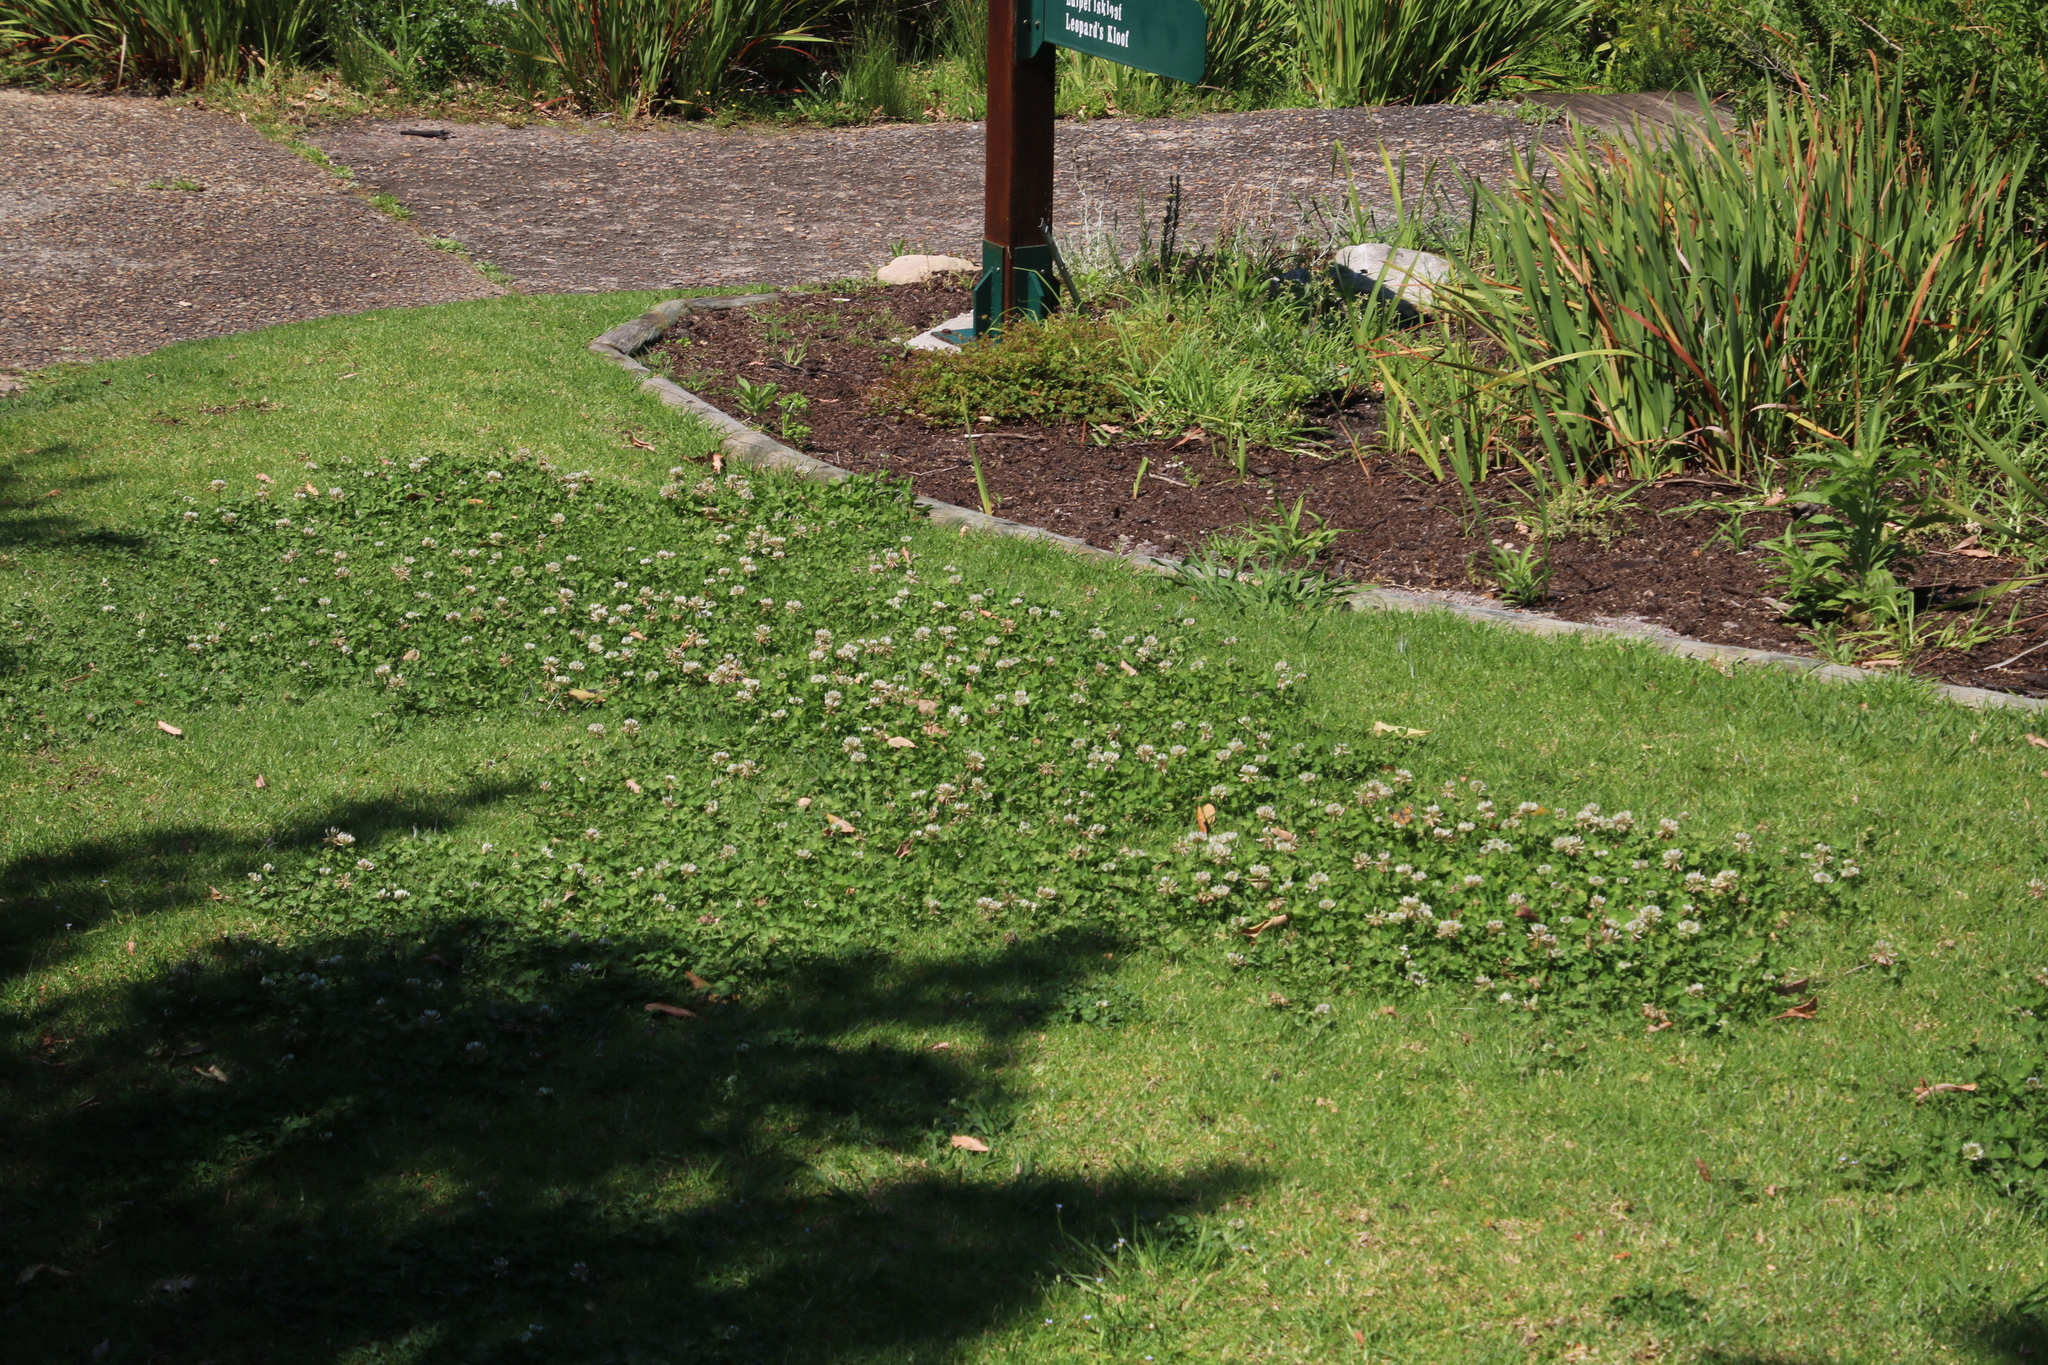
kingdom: Plantae
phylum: Tracheophyta
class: Magnoliopsida
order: Fabales
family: Fabaceae
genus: Trifolium
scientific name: Trifolium repens
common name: White clover
